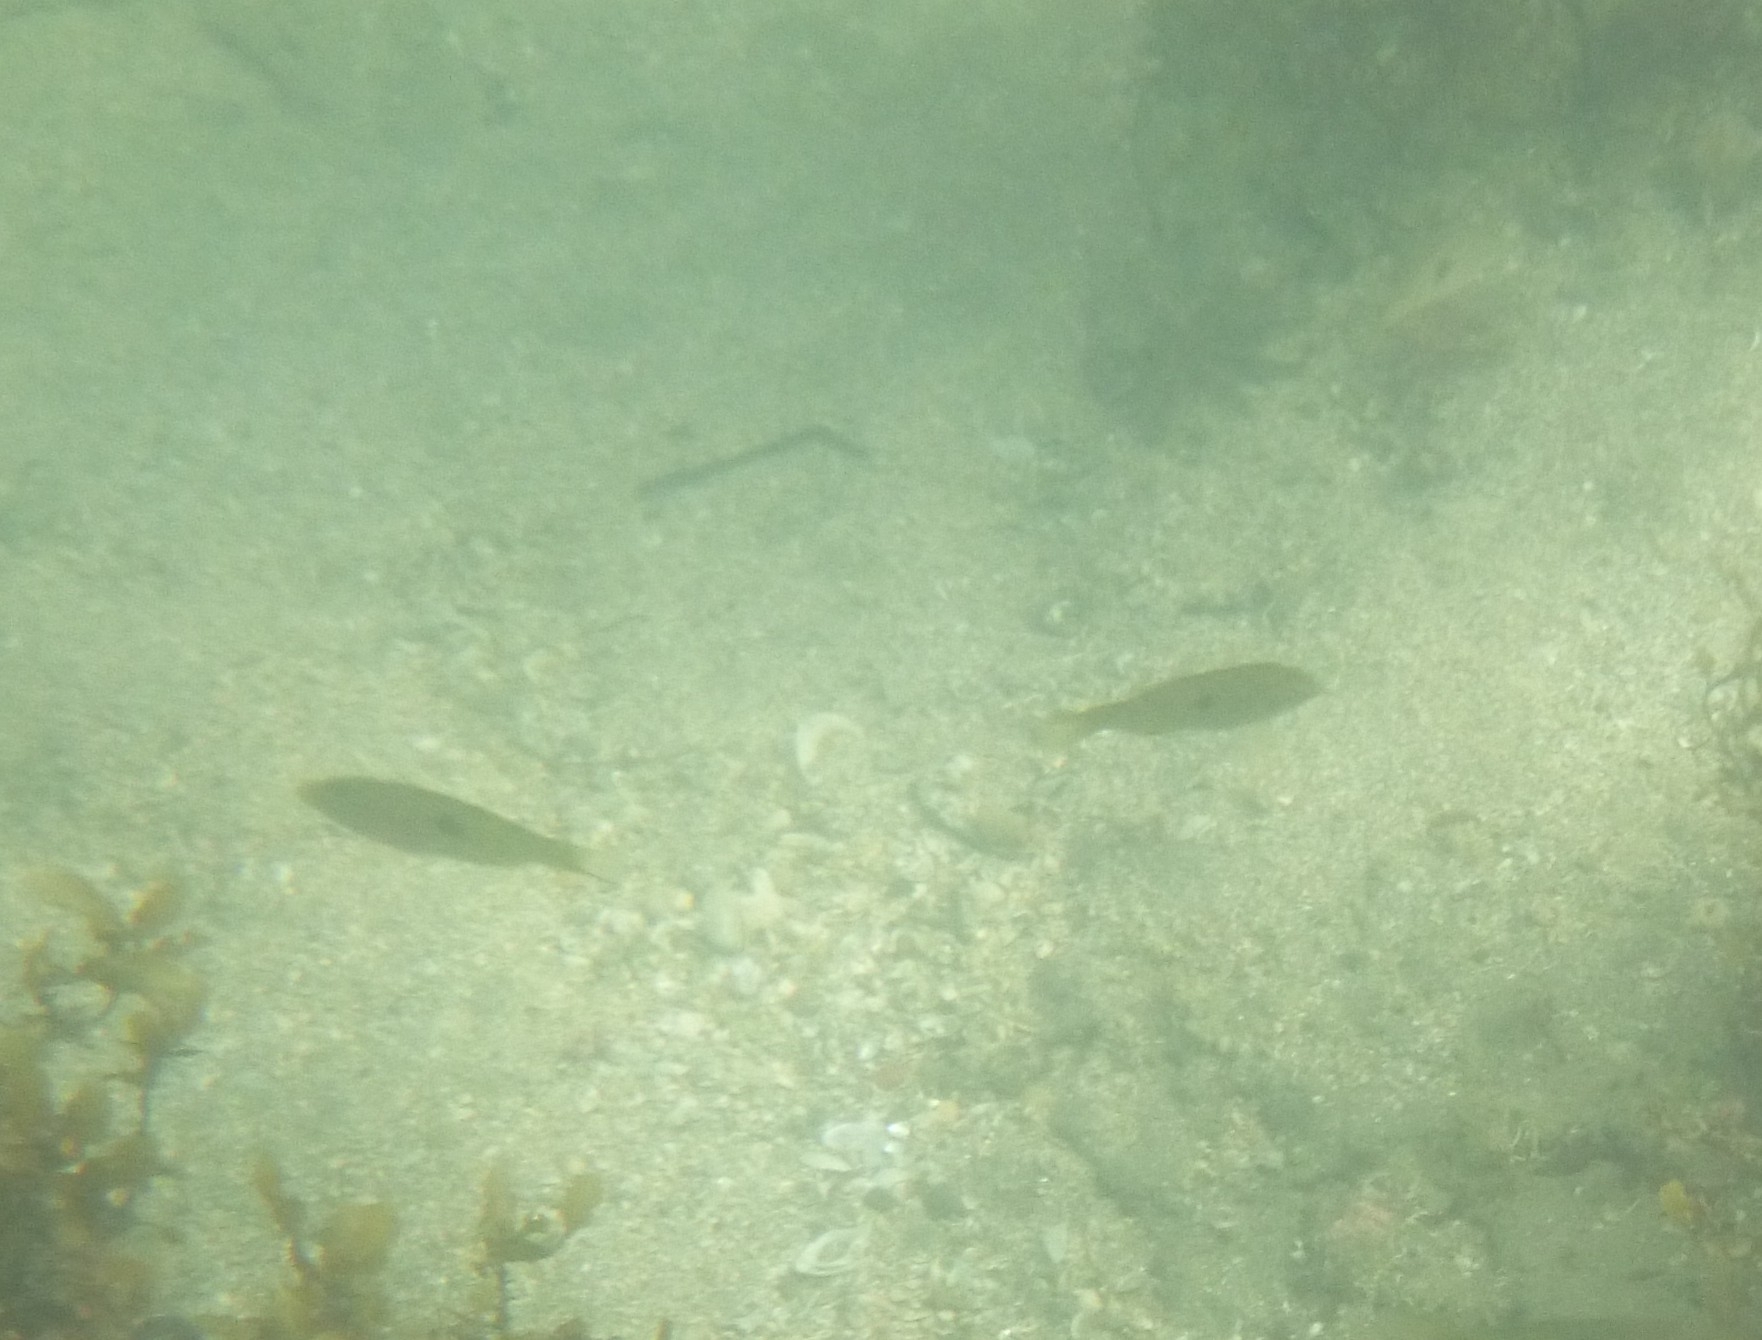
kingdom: Animalia
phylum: Chordata
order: Perciformes
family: Labridae
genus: Notolabrus
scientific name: Notolabrus celidotus
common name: Spotty
